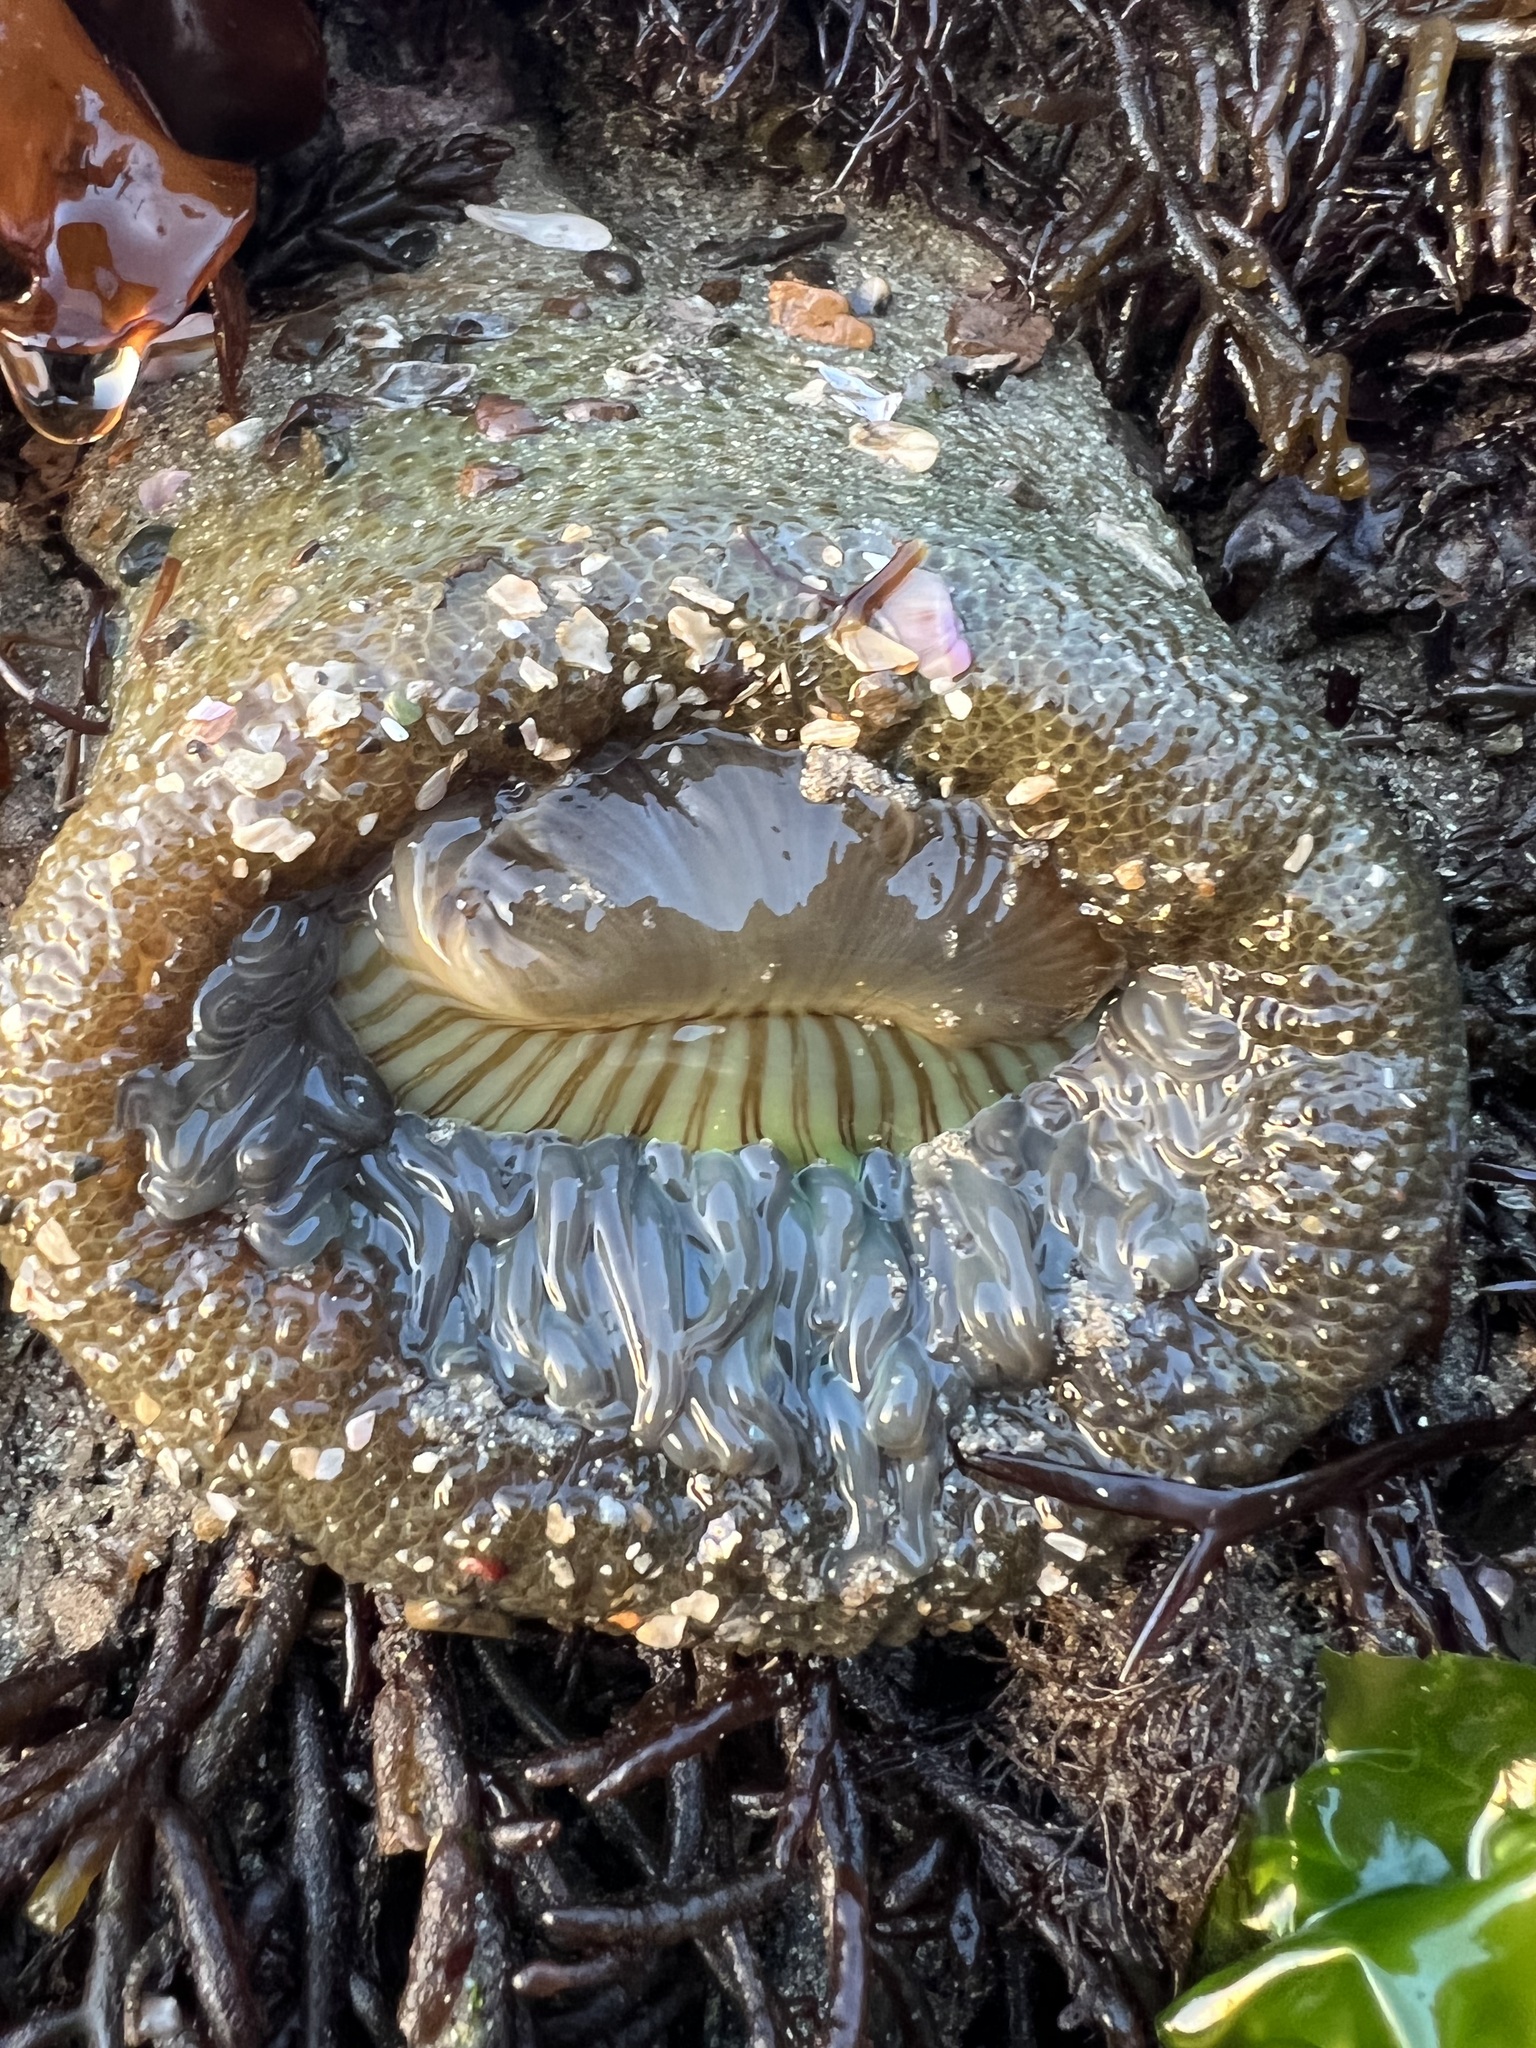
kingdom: Animalia
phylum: Cnidaria
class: Anthozoa
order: Actiniaria
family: Actiniidae
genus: Anthopleura
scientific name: Anthopleura sola
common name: Sun anemone
